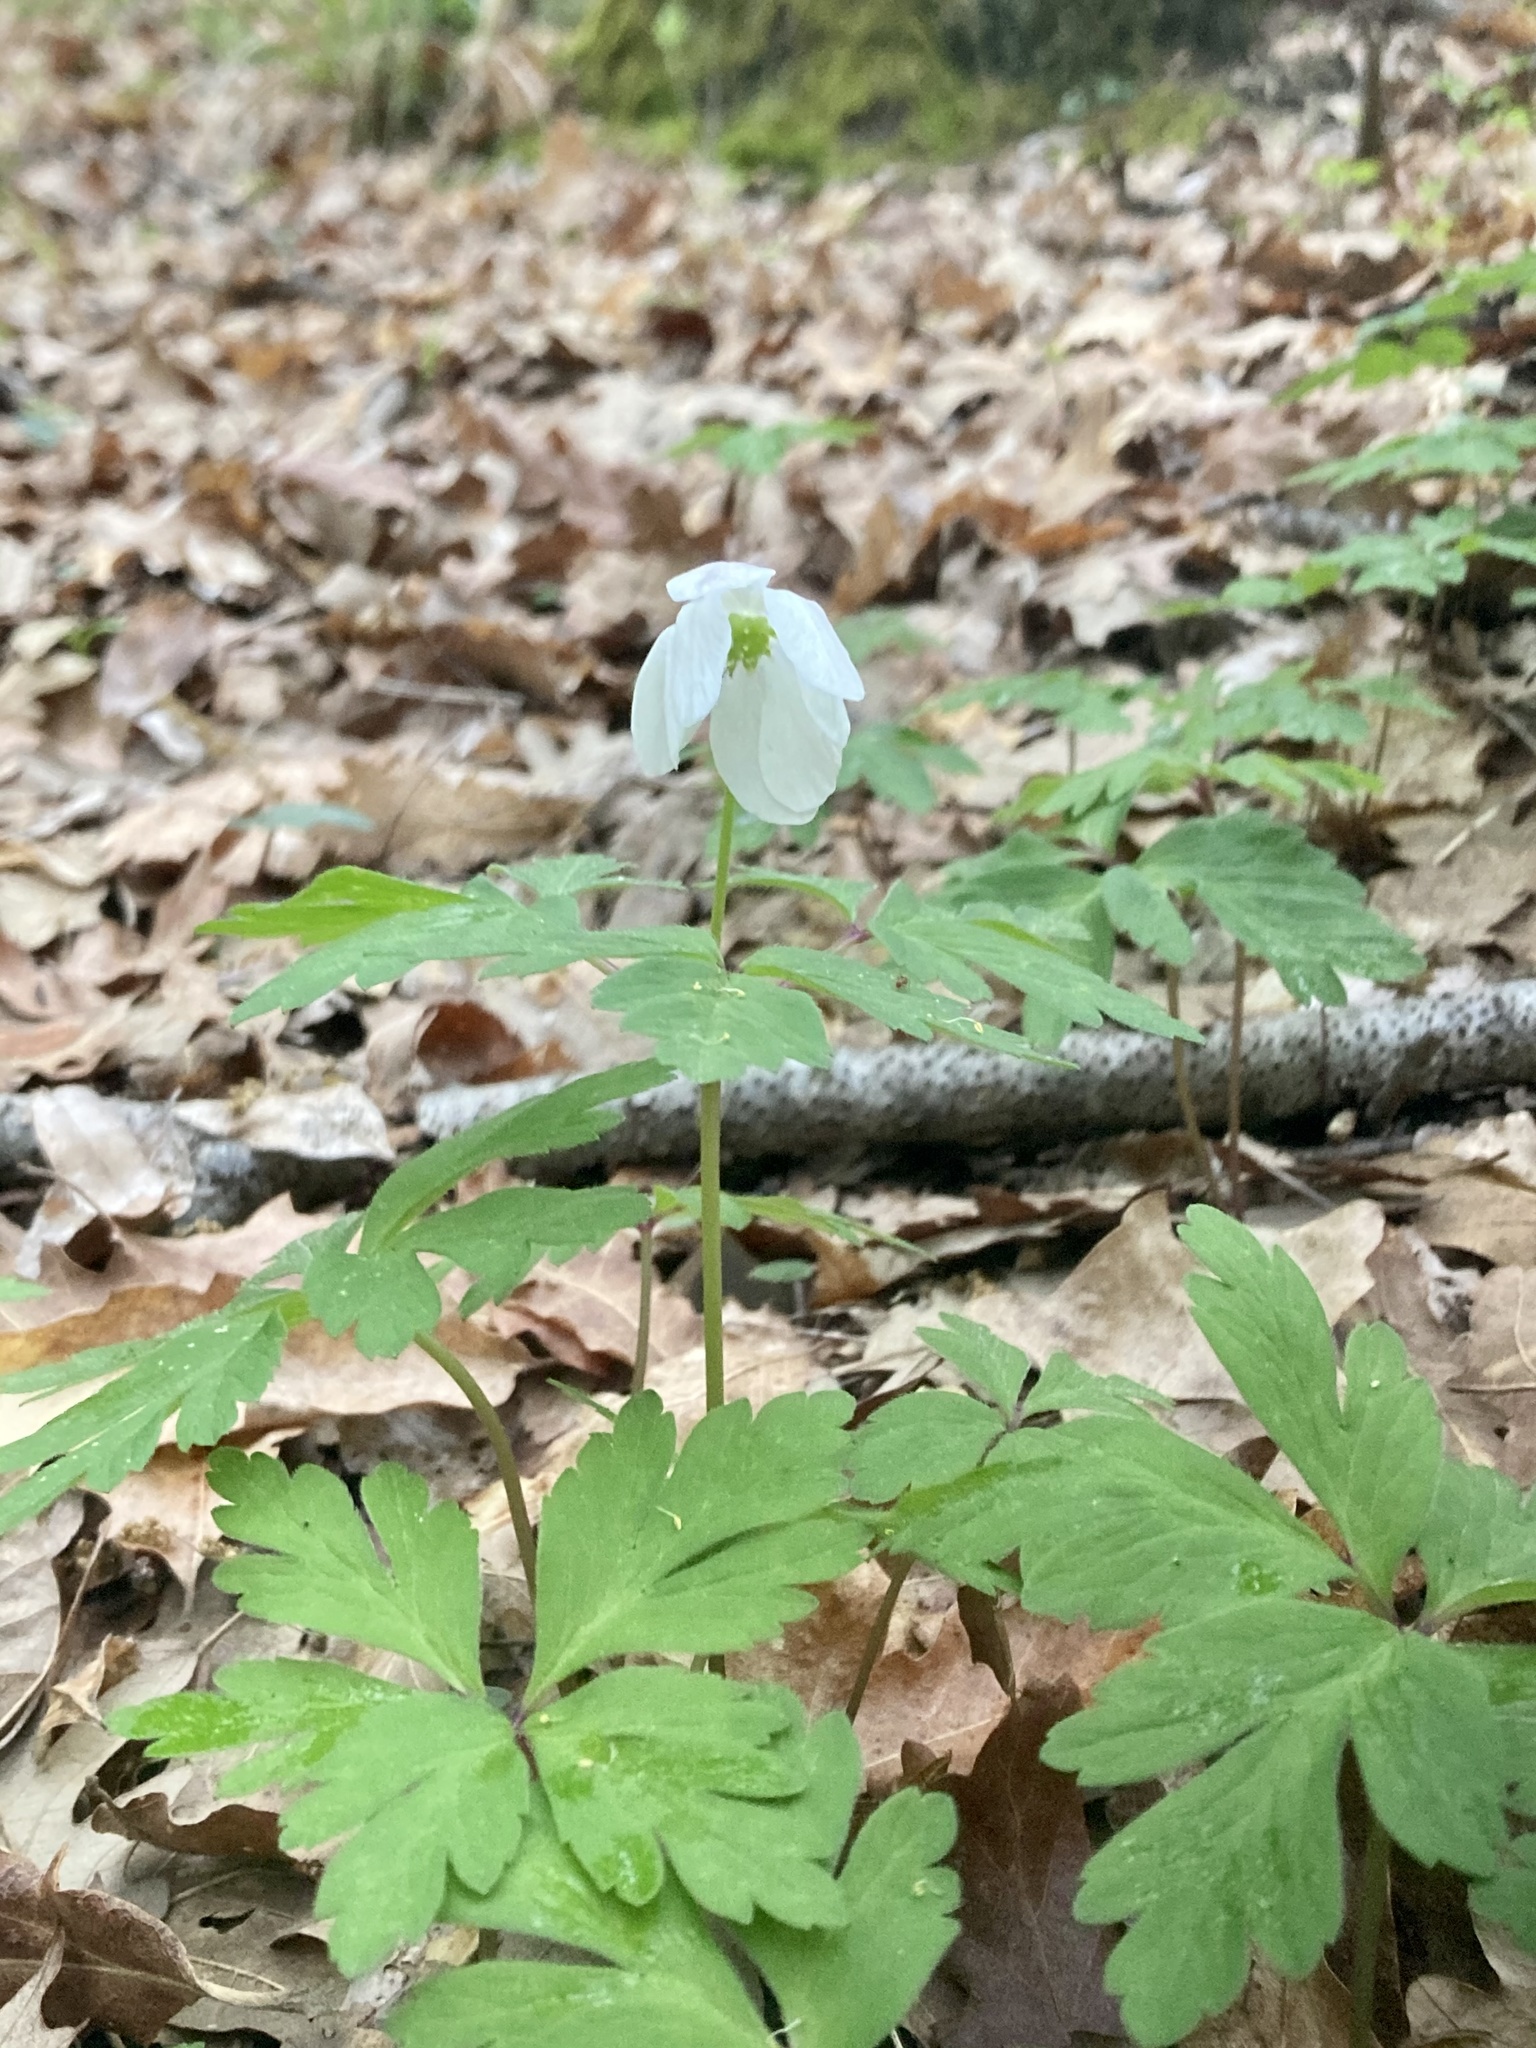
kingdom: Plantae
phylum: Tracheophyta
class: Magnoliopsida
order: Ranunculales
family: Ranunculaceae
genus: Anemone
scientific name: Anemone nemorosa
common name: Wood anemone
